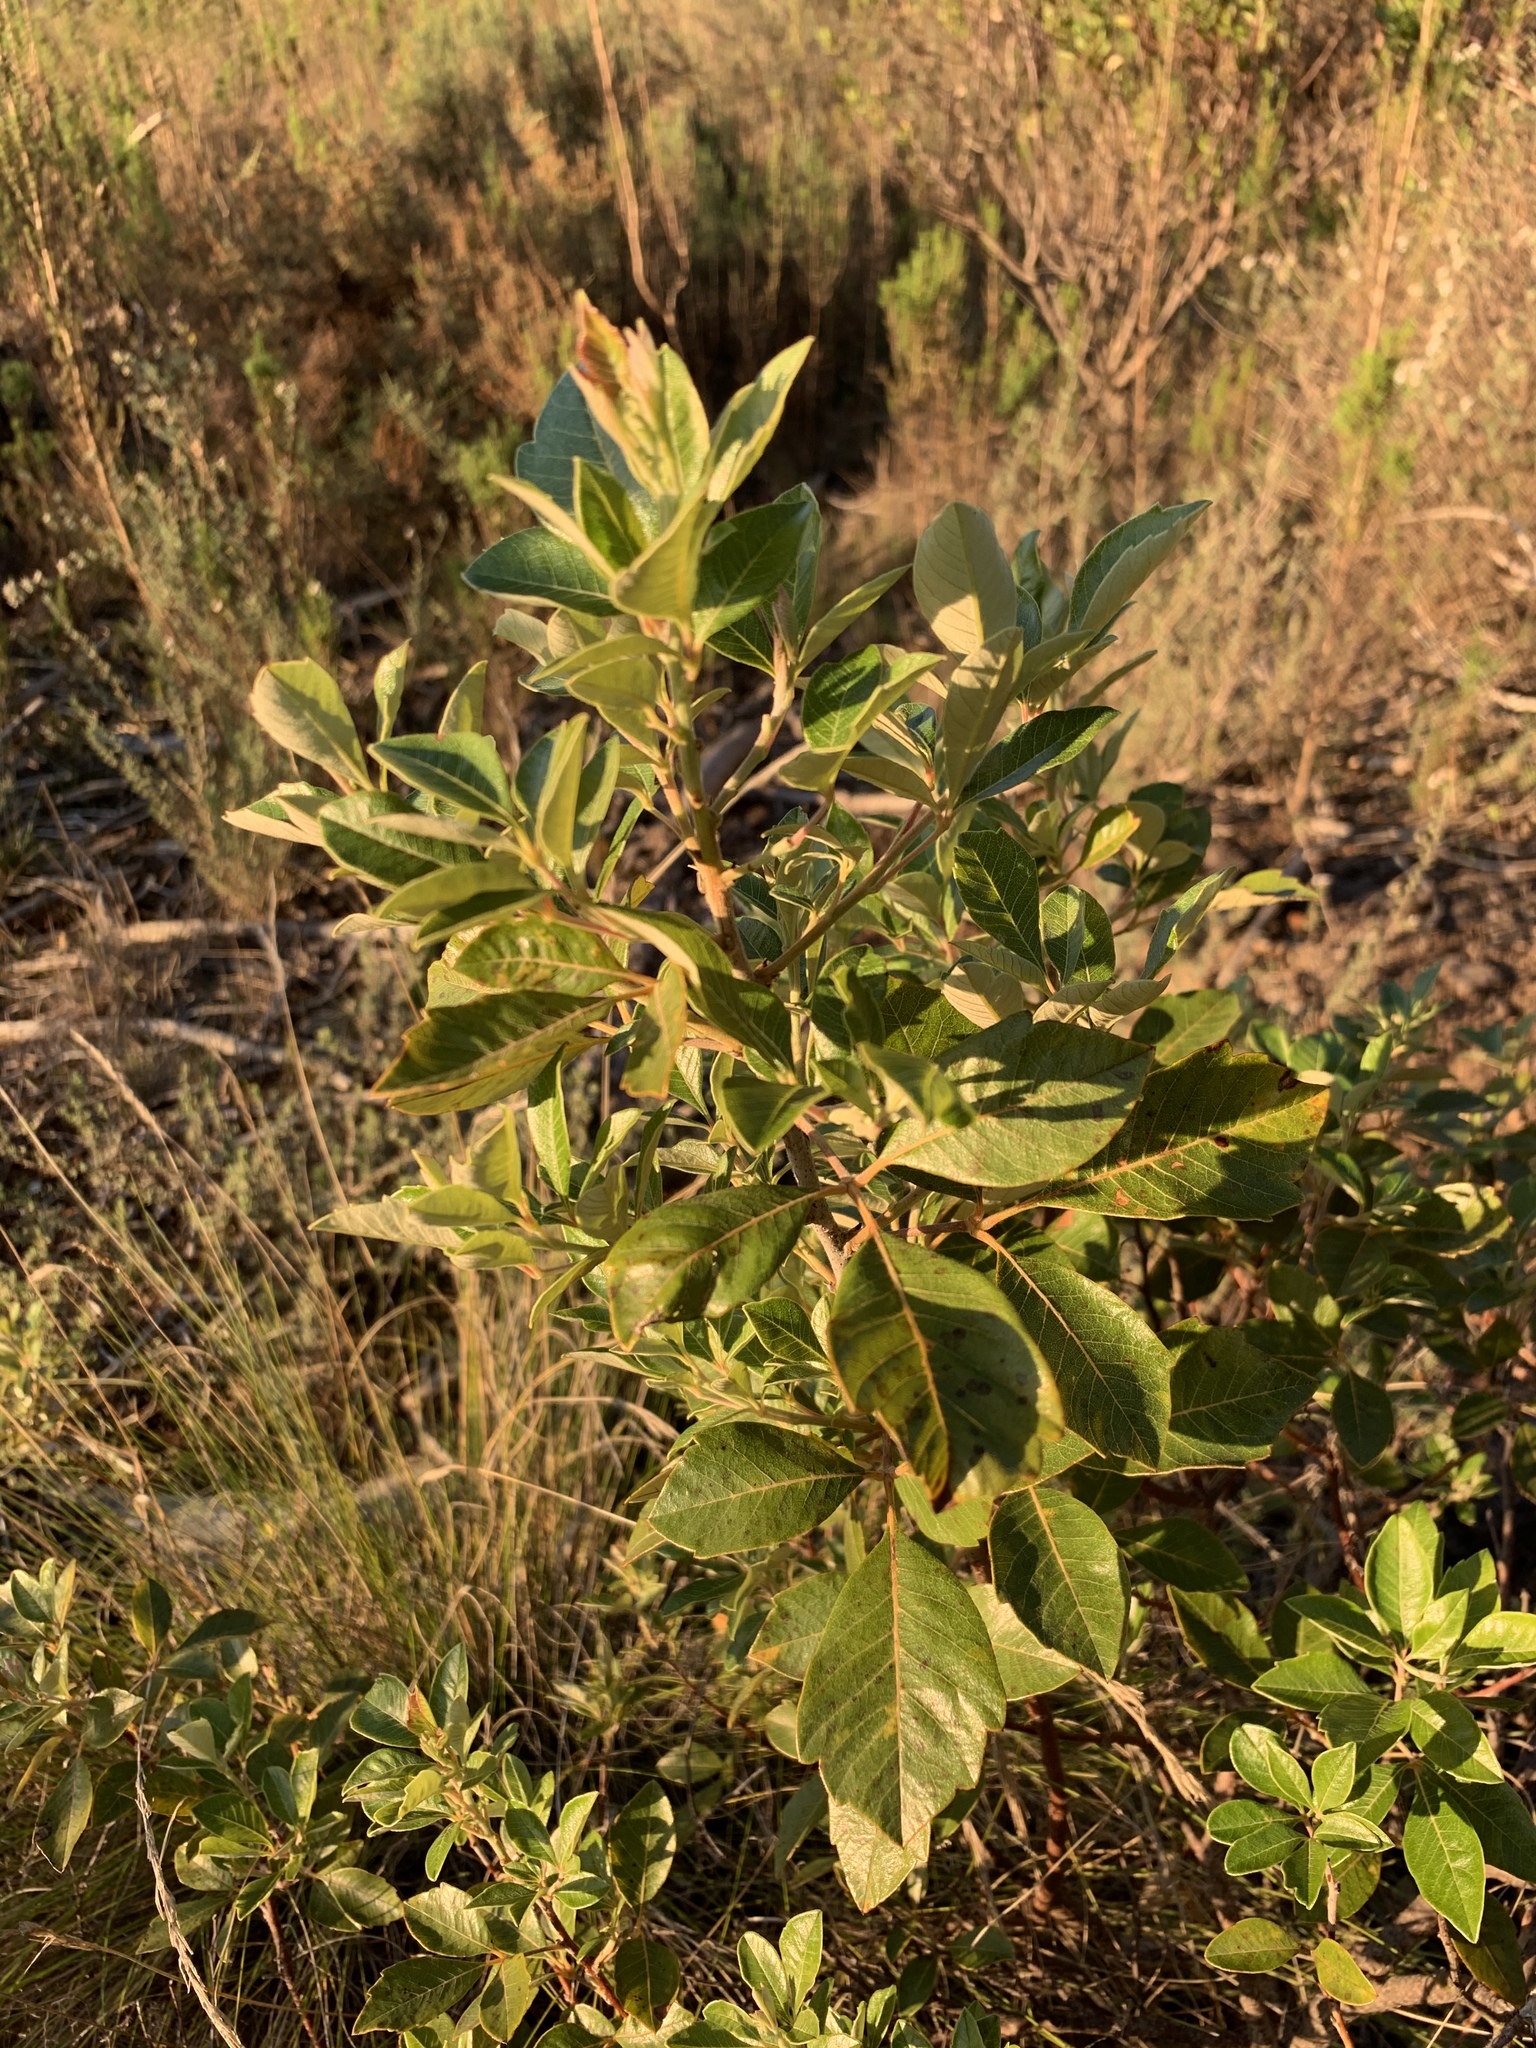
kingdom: Plantae
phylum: Tracheophyta
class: Magnoliopsida
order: Sapindales
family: Anacardiaceae
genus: Searsia
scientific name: Searsia tomentosa
